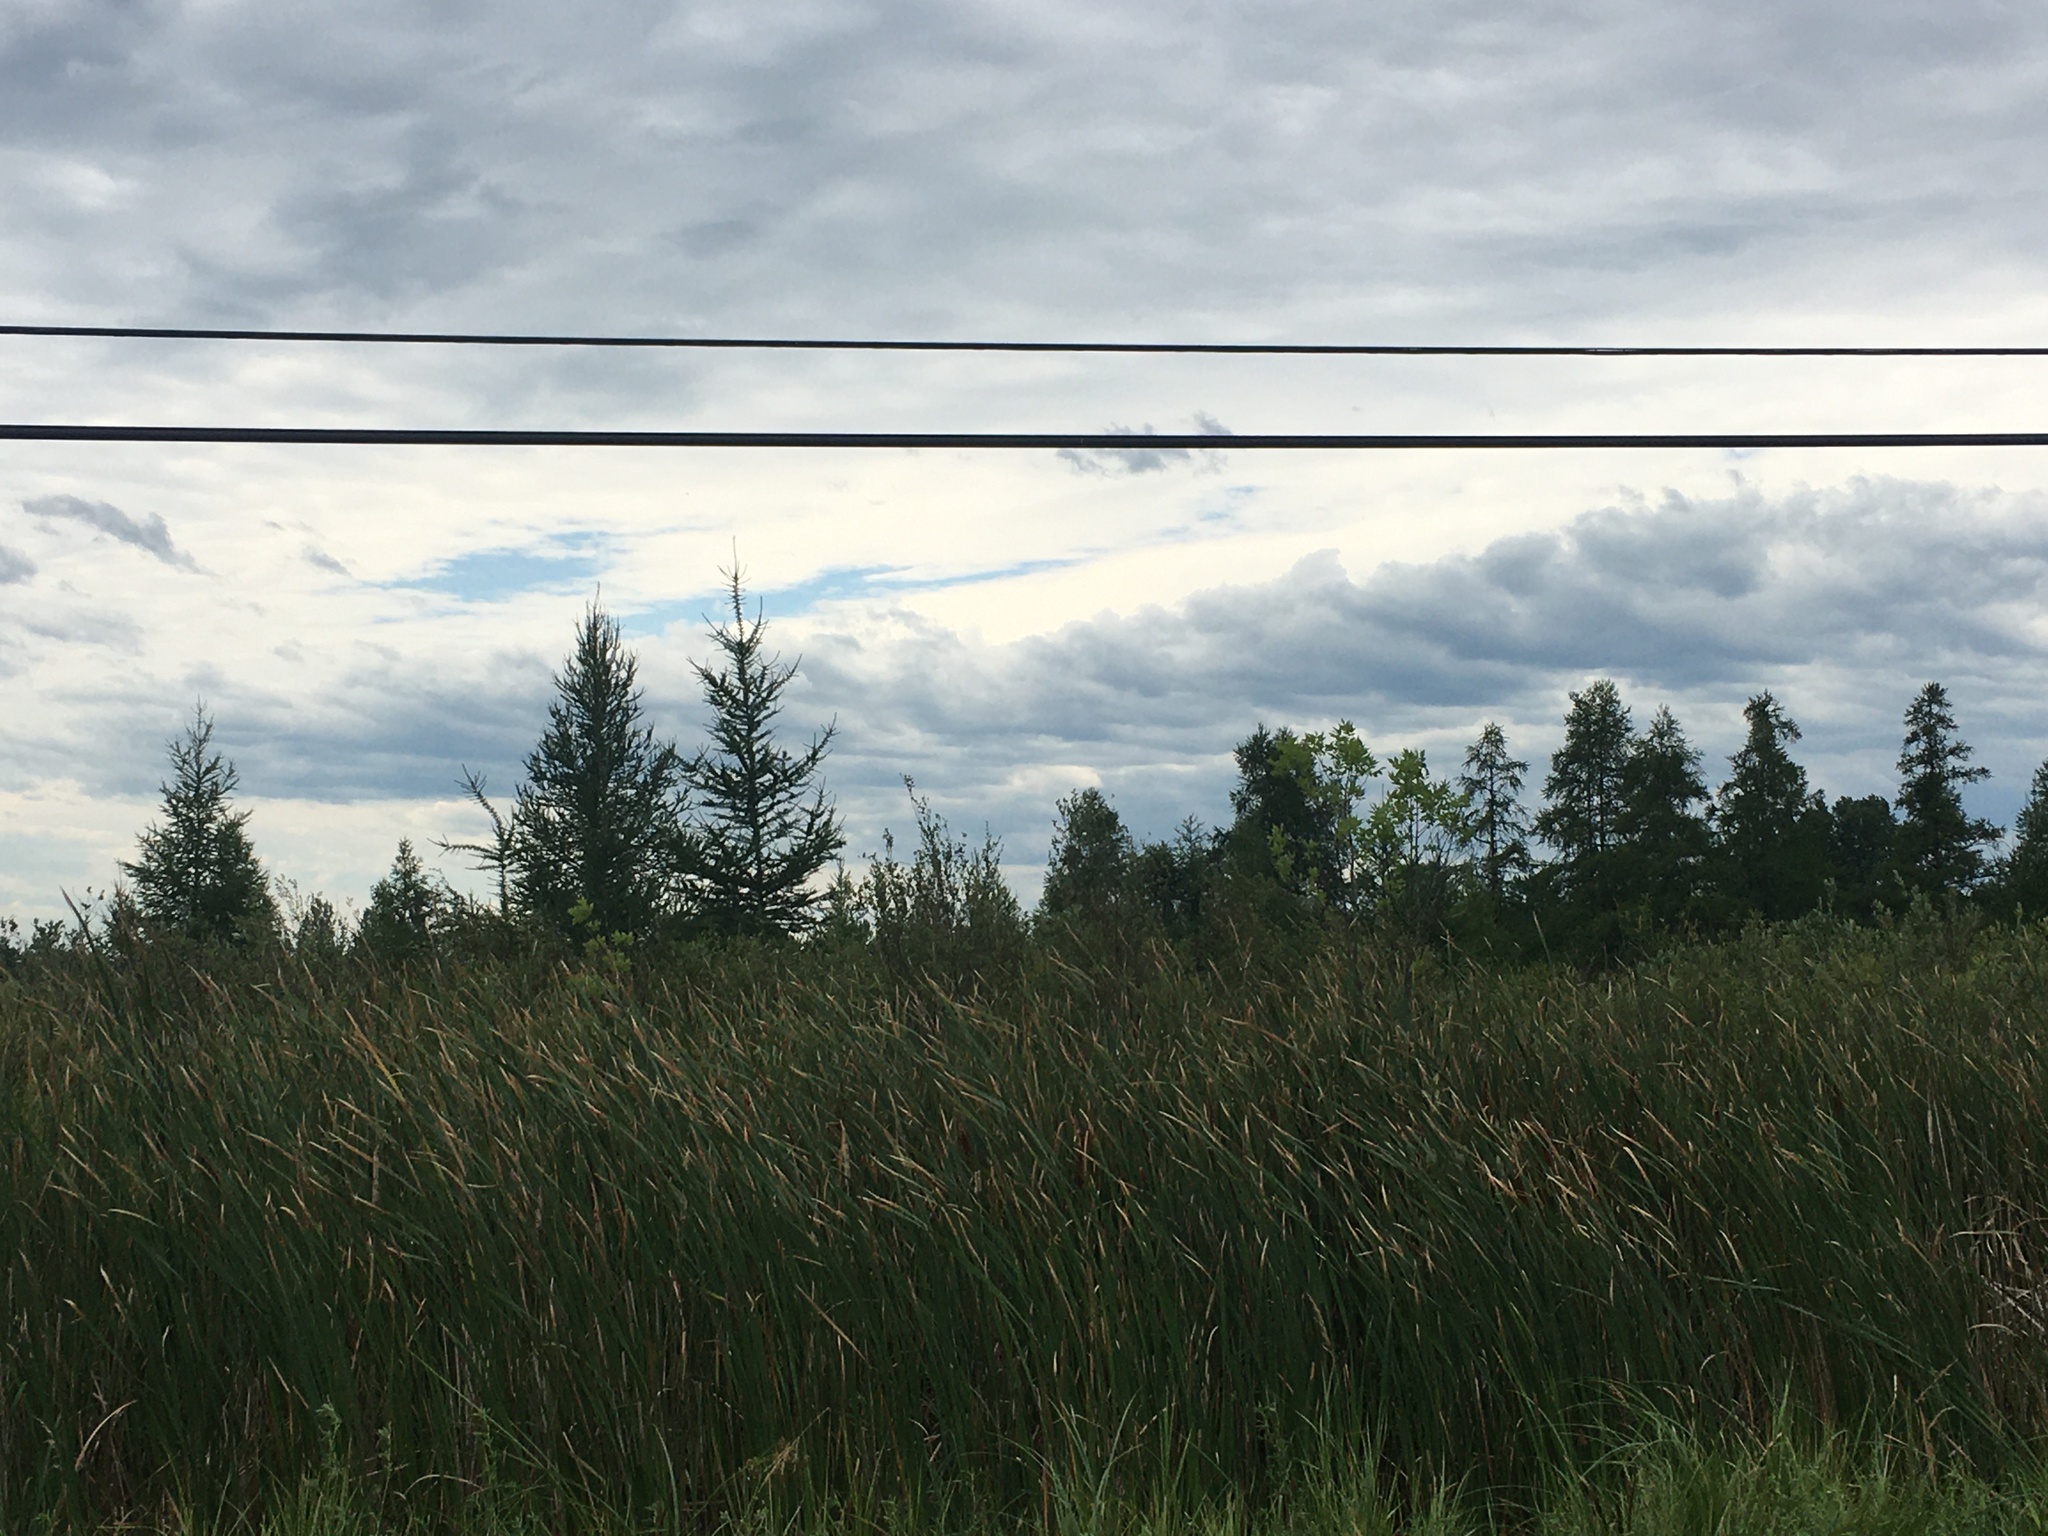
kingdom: Plantae
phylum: Tracheophyta
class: Pinopsida
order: Pinales
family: Pinaceae
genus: Larix
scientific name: Larix laricina
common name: American larch
